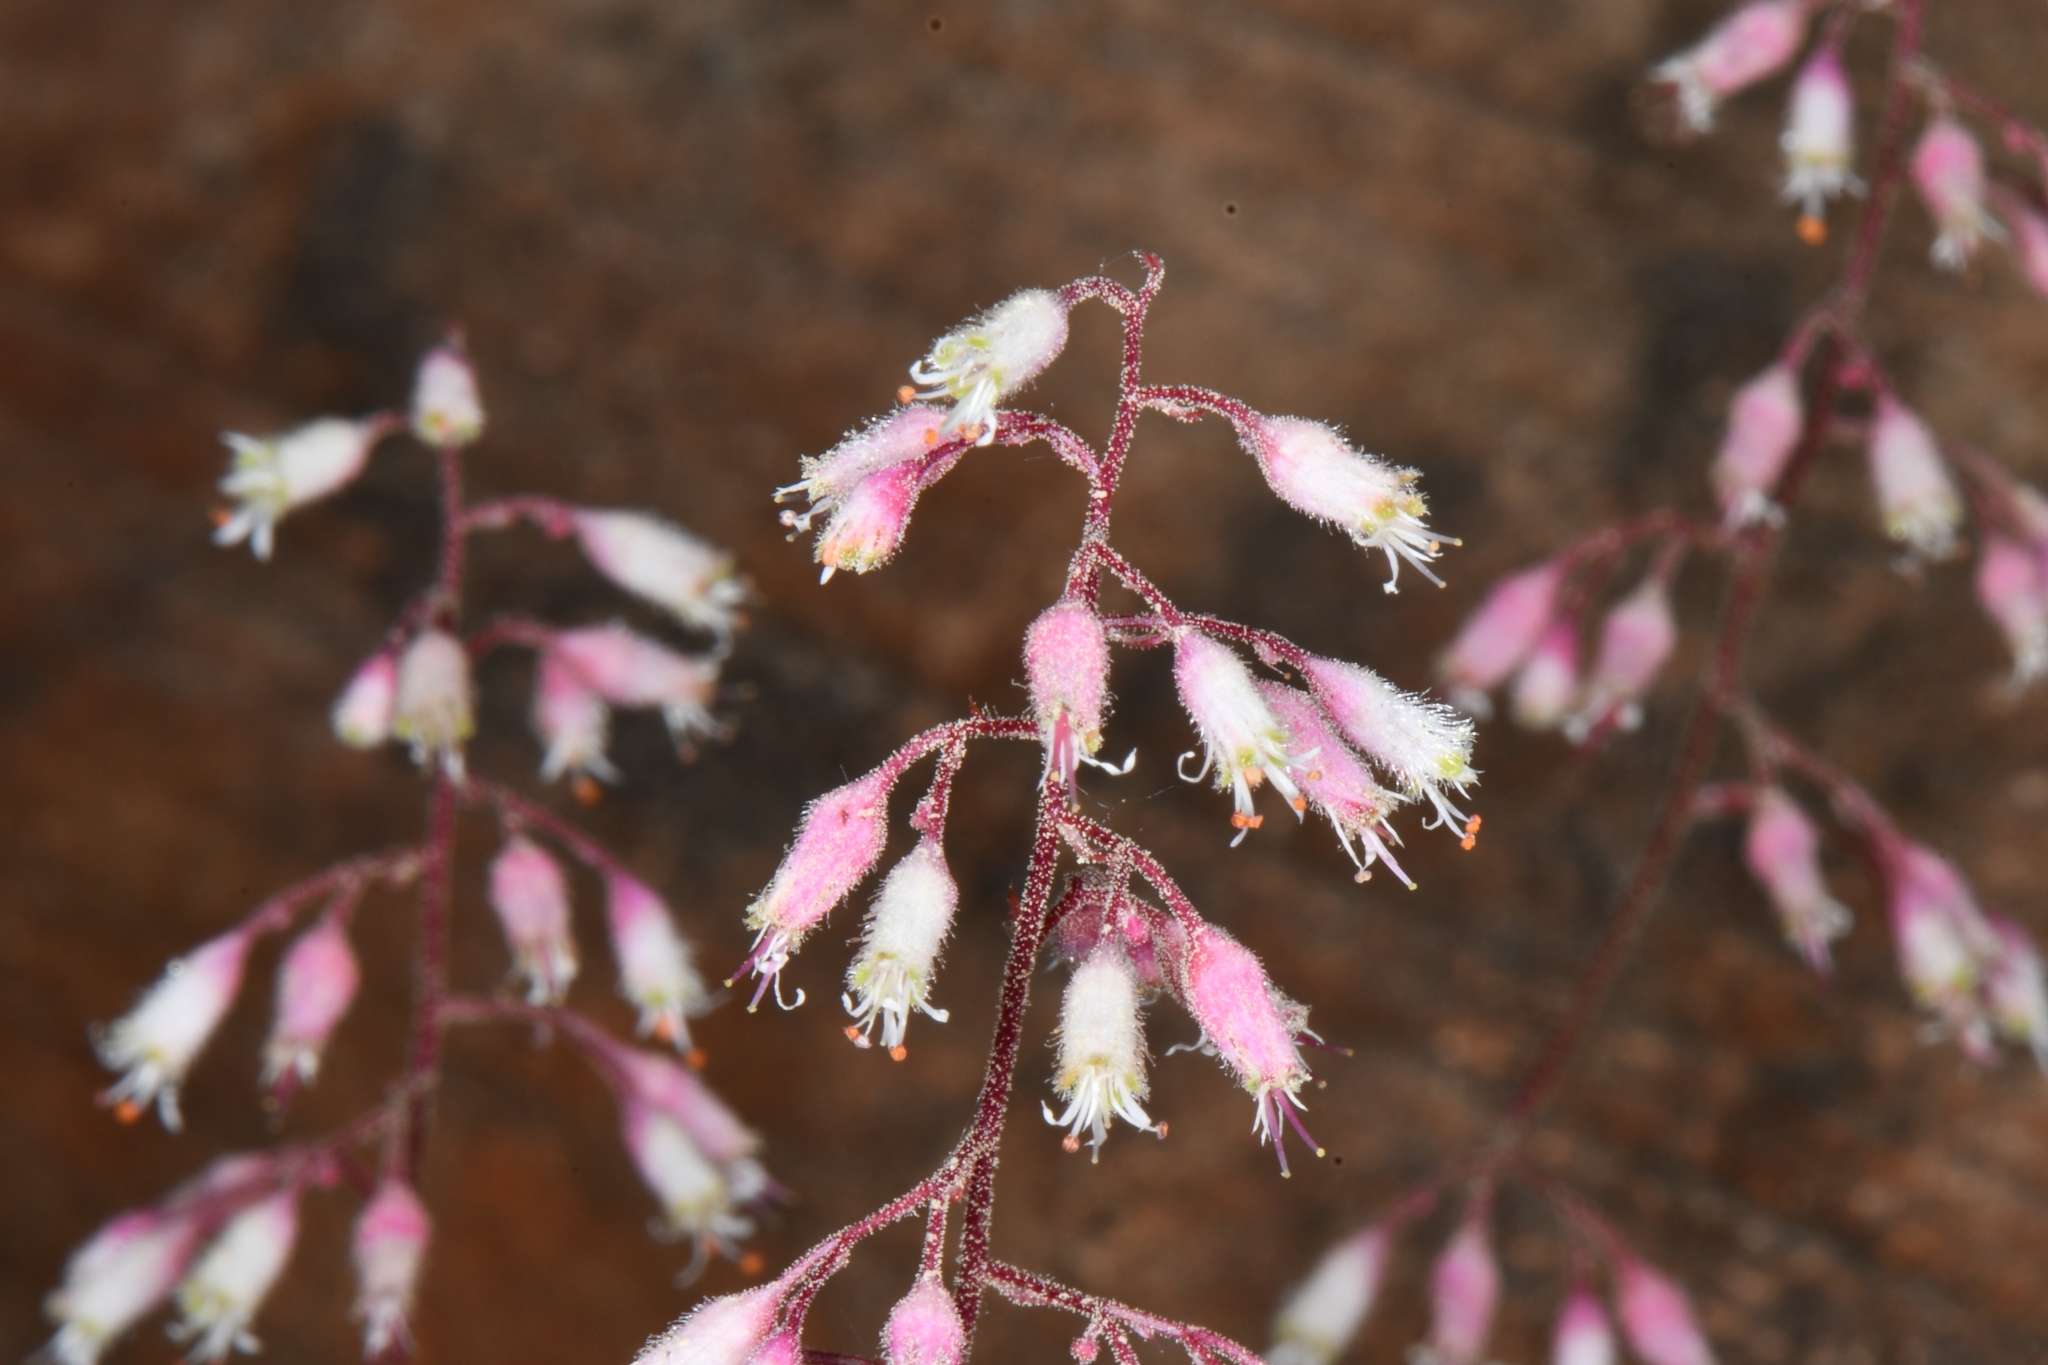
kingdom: Plantae
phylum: Tracheophyta
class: Magnoliopsida
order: Saxifragales
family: Saxifragaceae
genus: Heuchera
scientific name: Heuchera rubescens
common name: Jack-o'the-rocks
